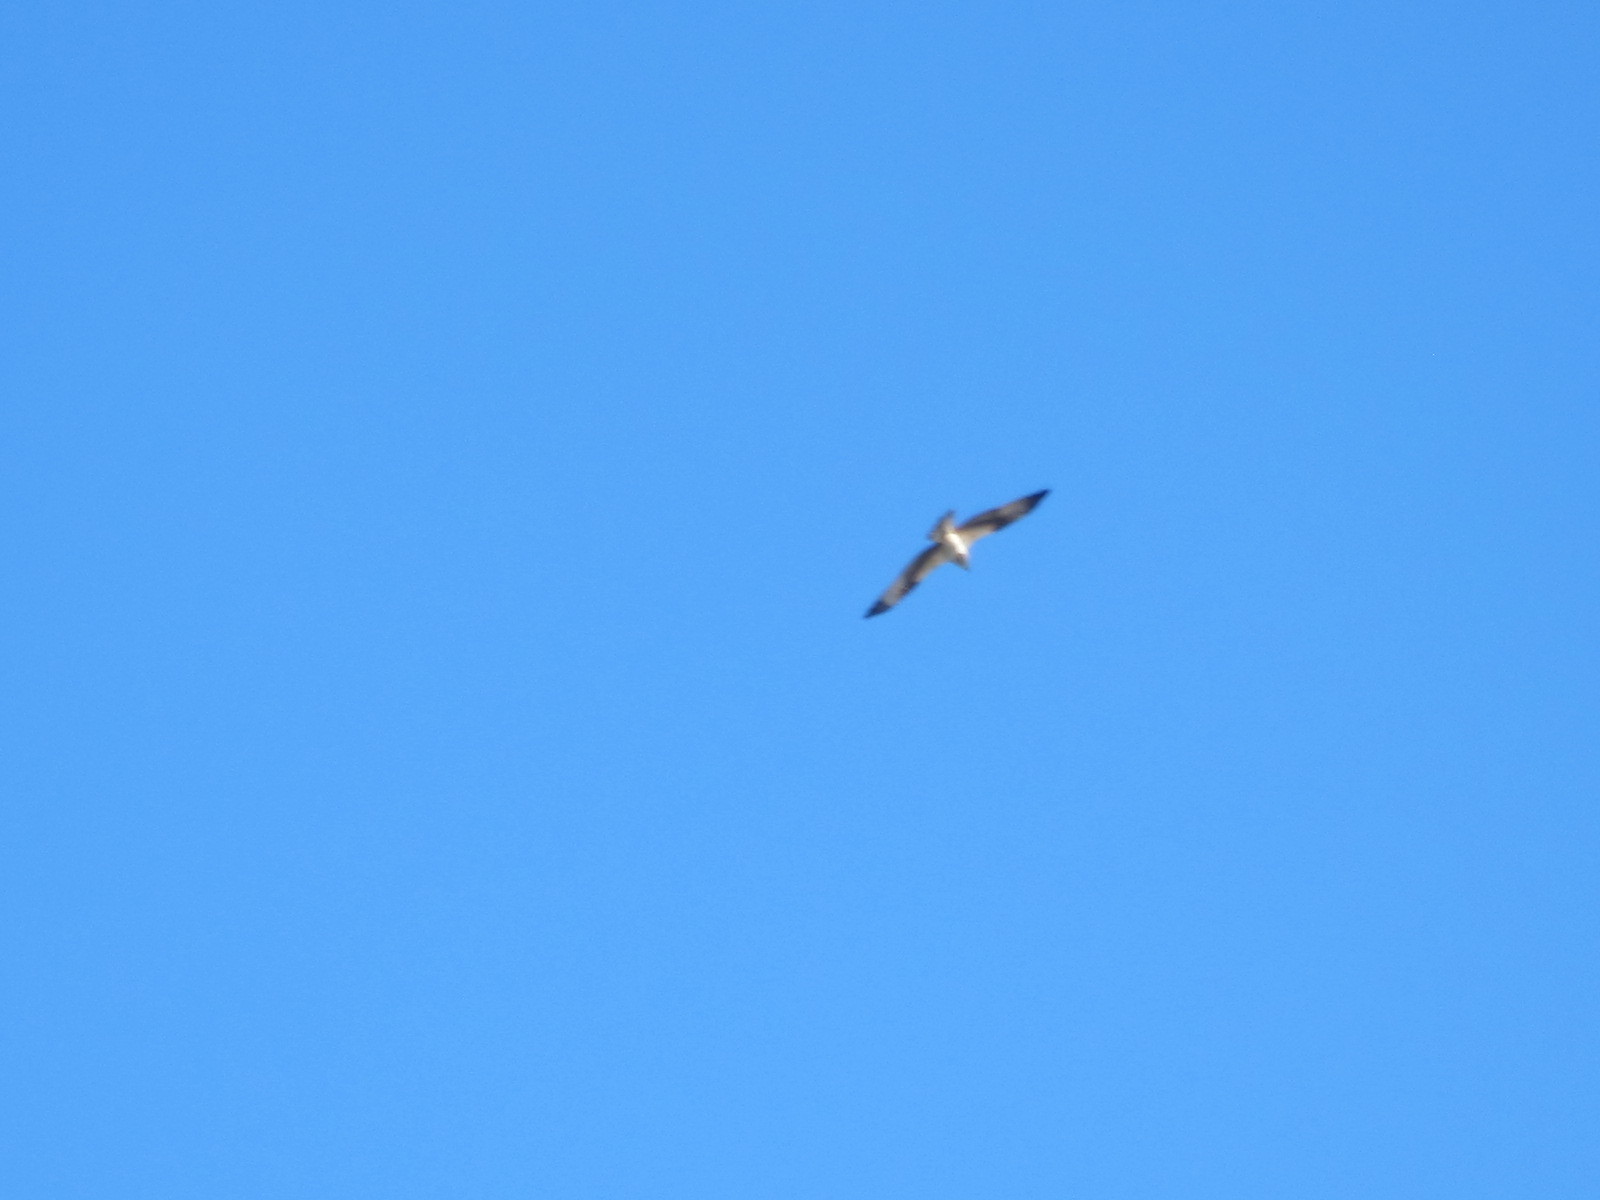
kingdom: Animalia
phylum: Chordata
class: Aves
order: Accipitriformes
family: Pandionidae
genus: Pandion
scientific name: Pandion haliaetus
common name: Osprey
